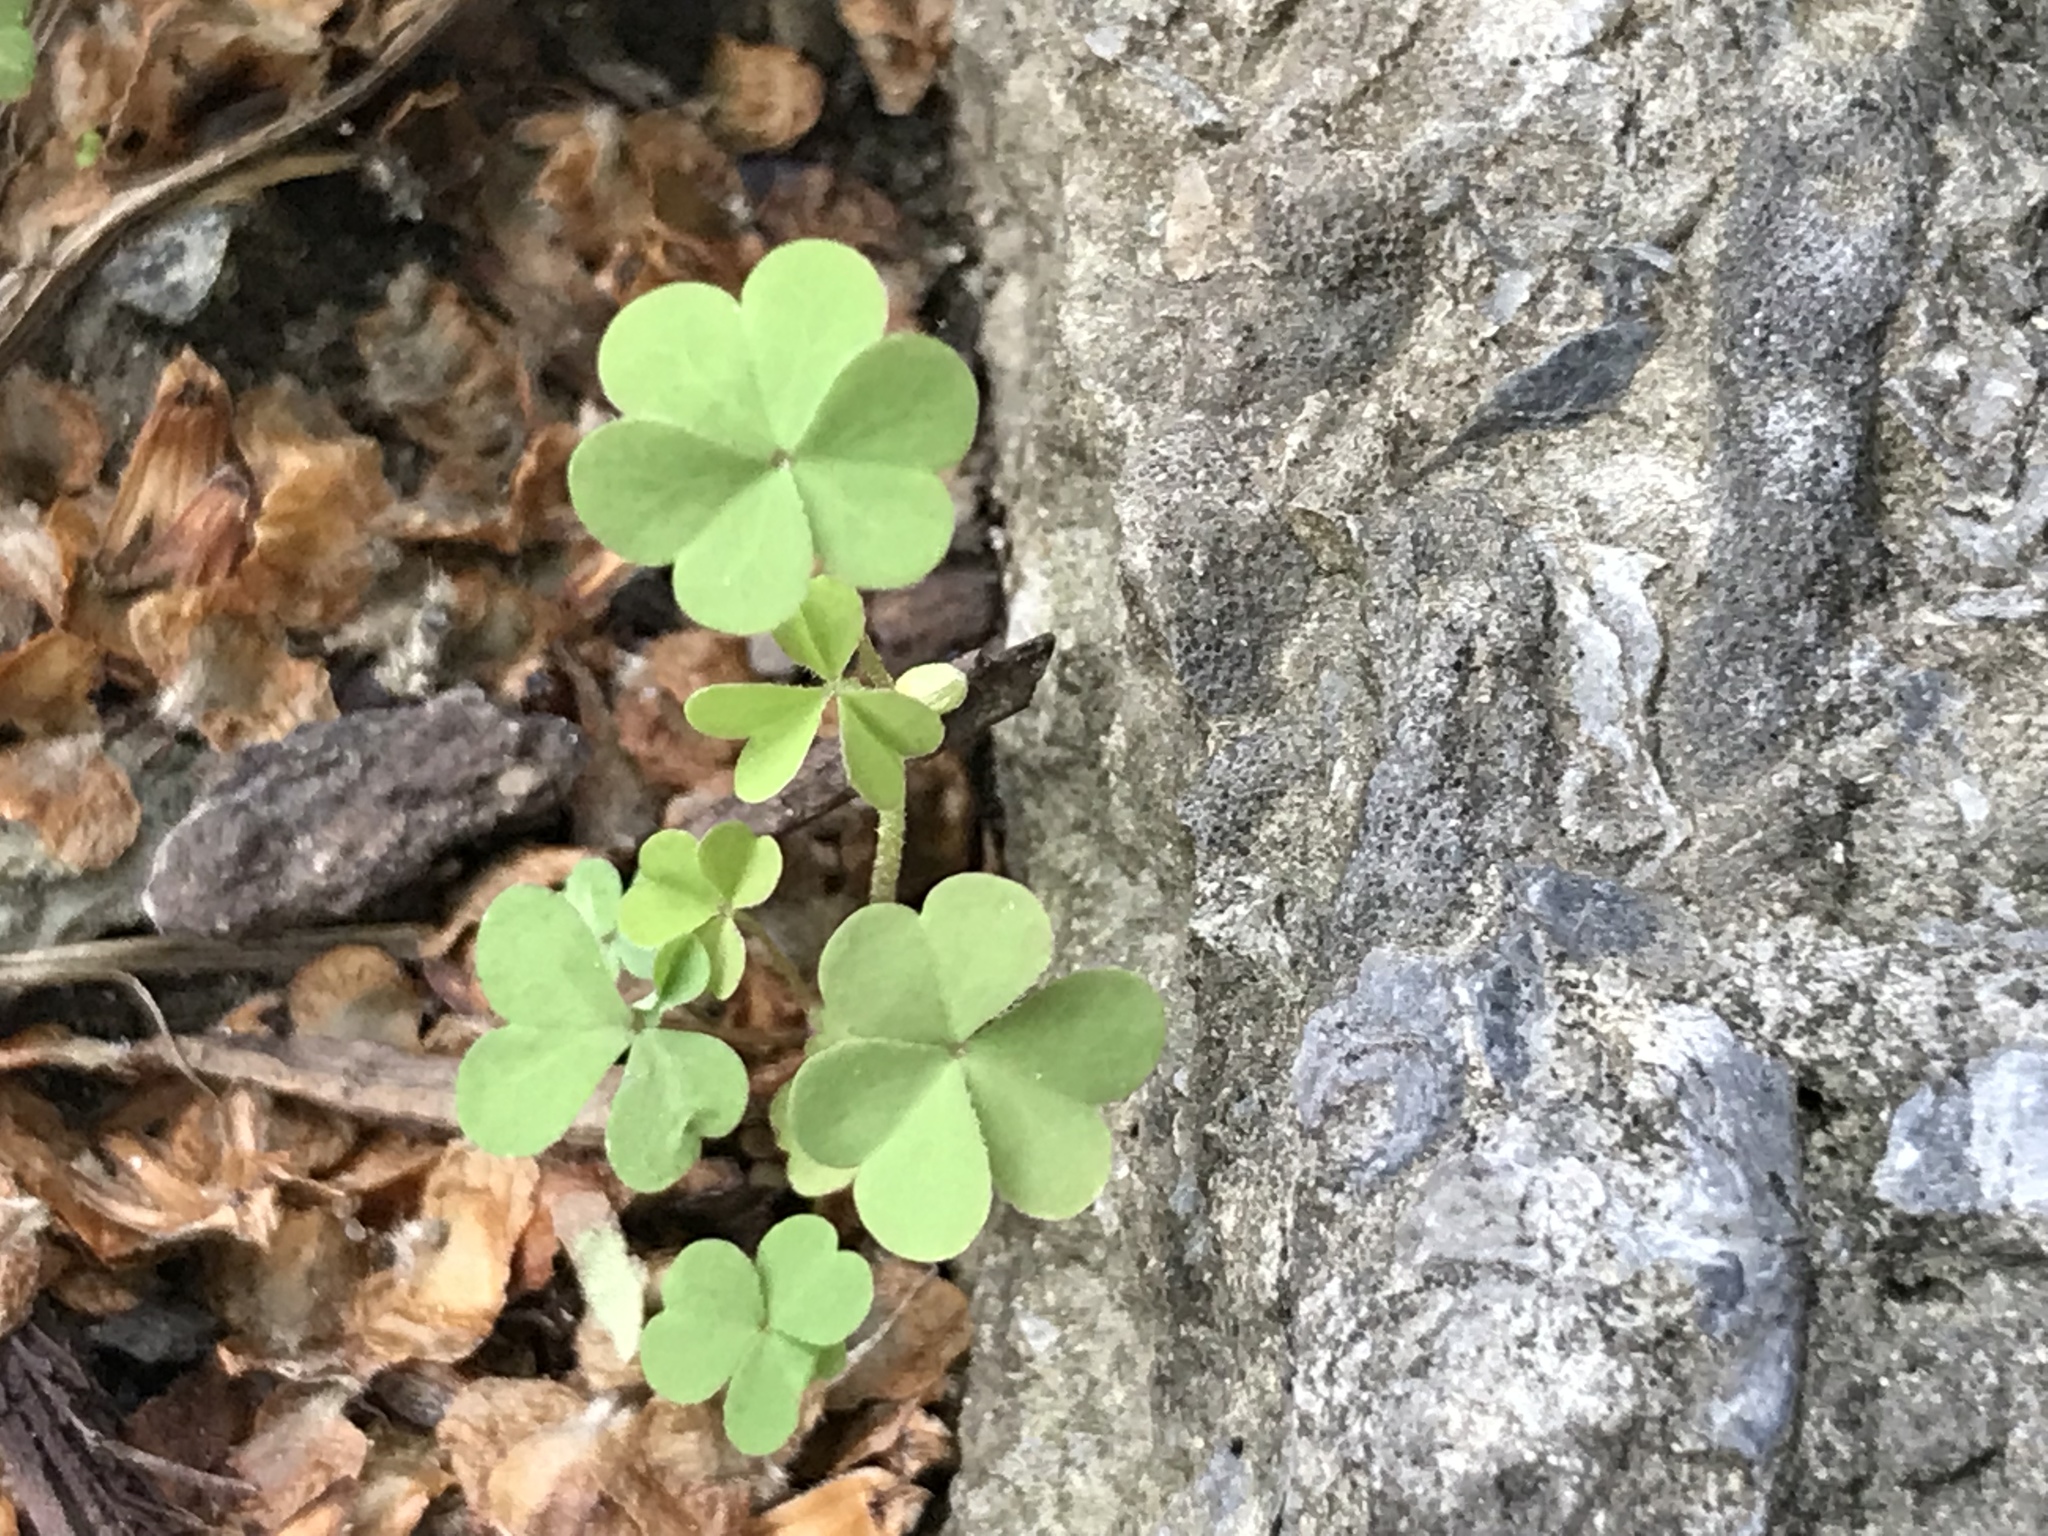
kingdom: Plantae
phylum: Tracheophyta
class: Magnoliopsida
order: Oxalidales
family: Oxalidaceae
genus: Oxalis
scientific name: Oxalis corniculata
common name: Procumbent yellow-sorrel
